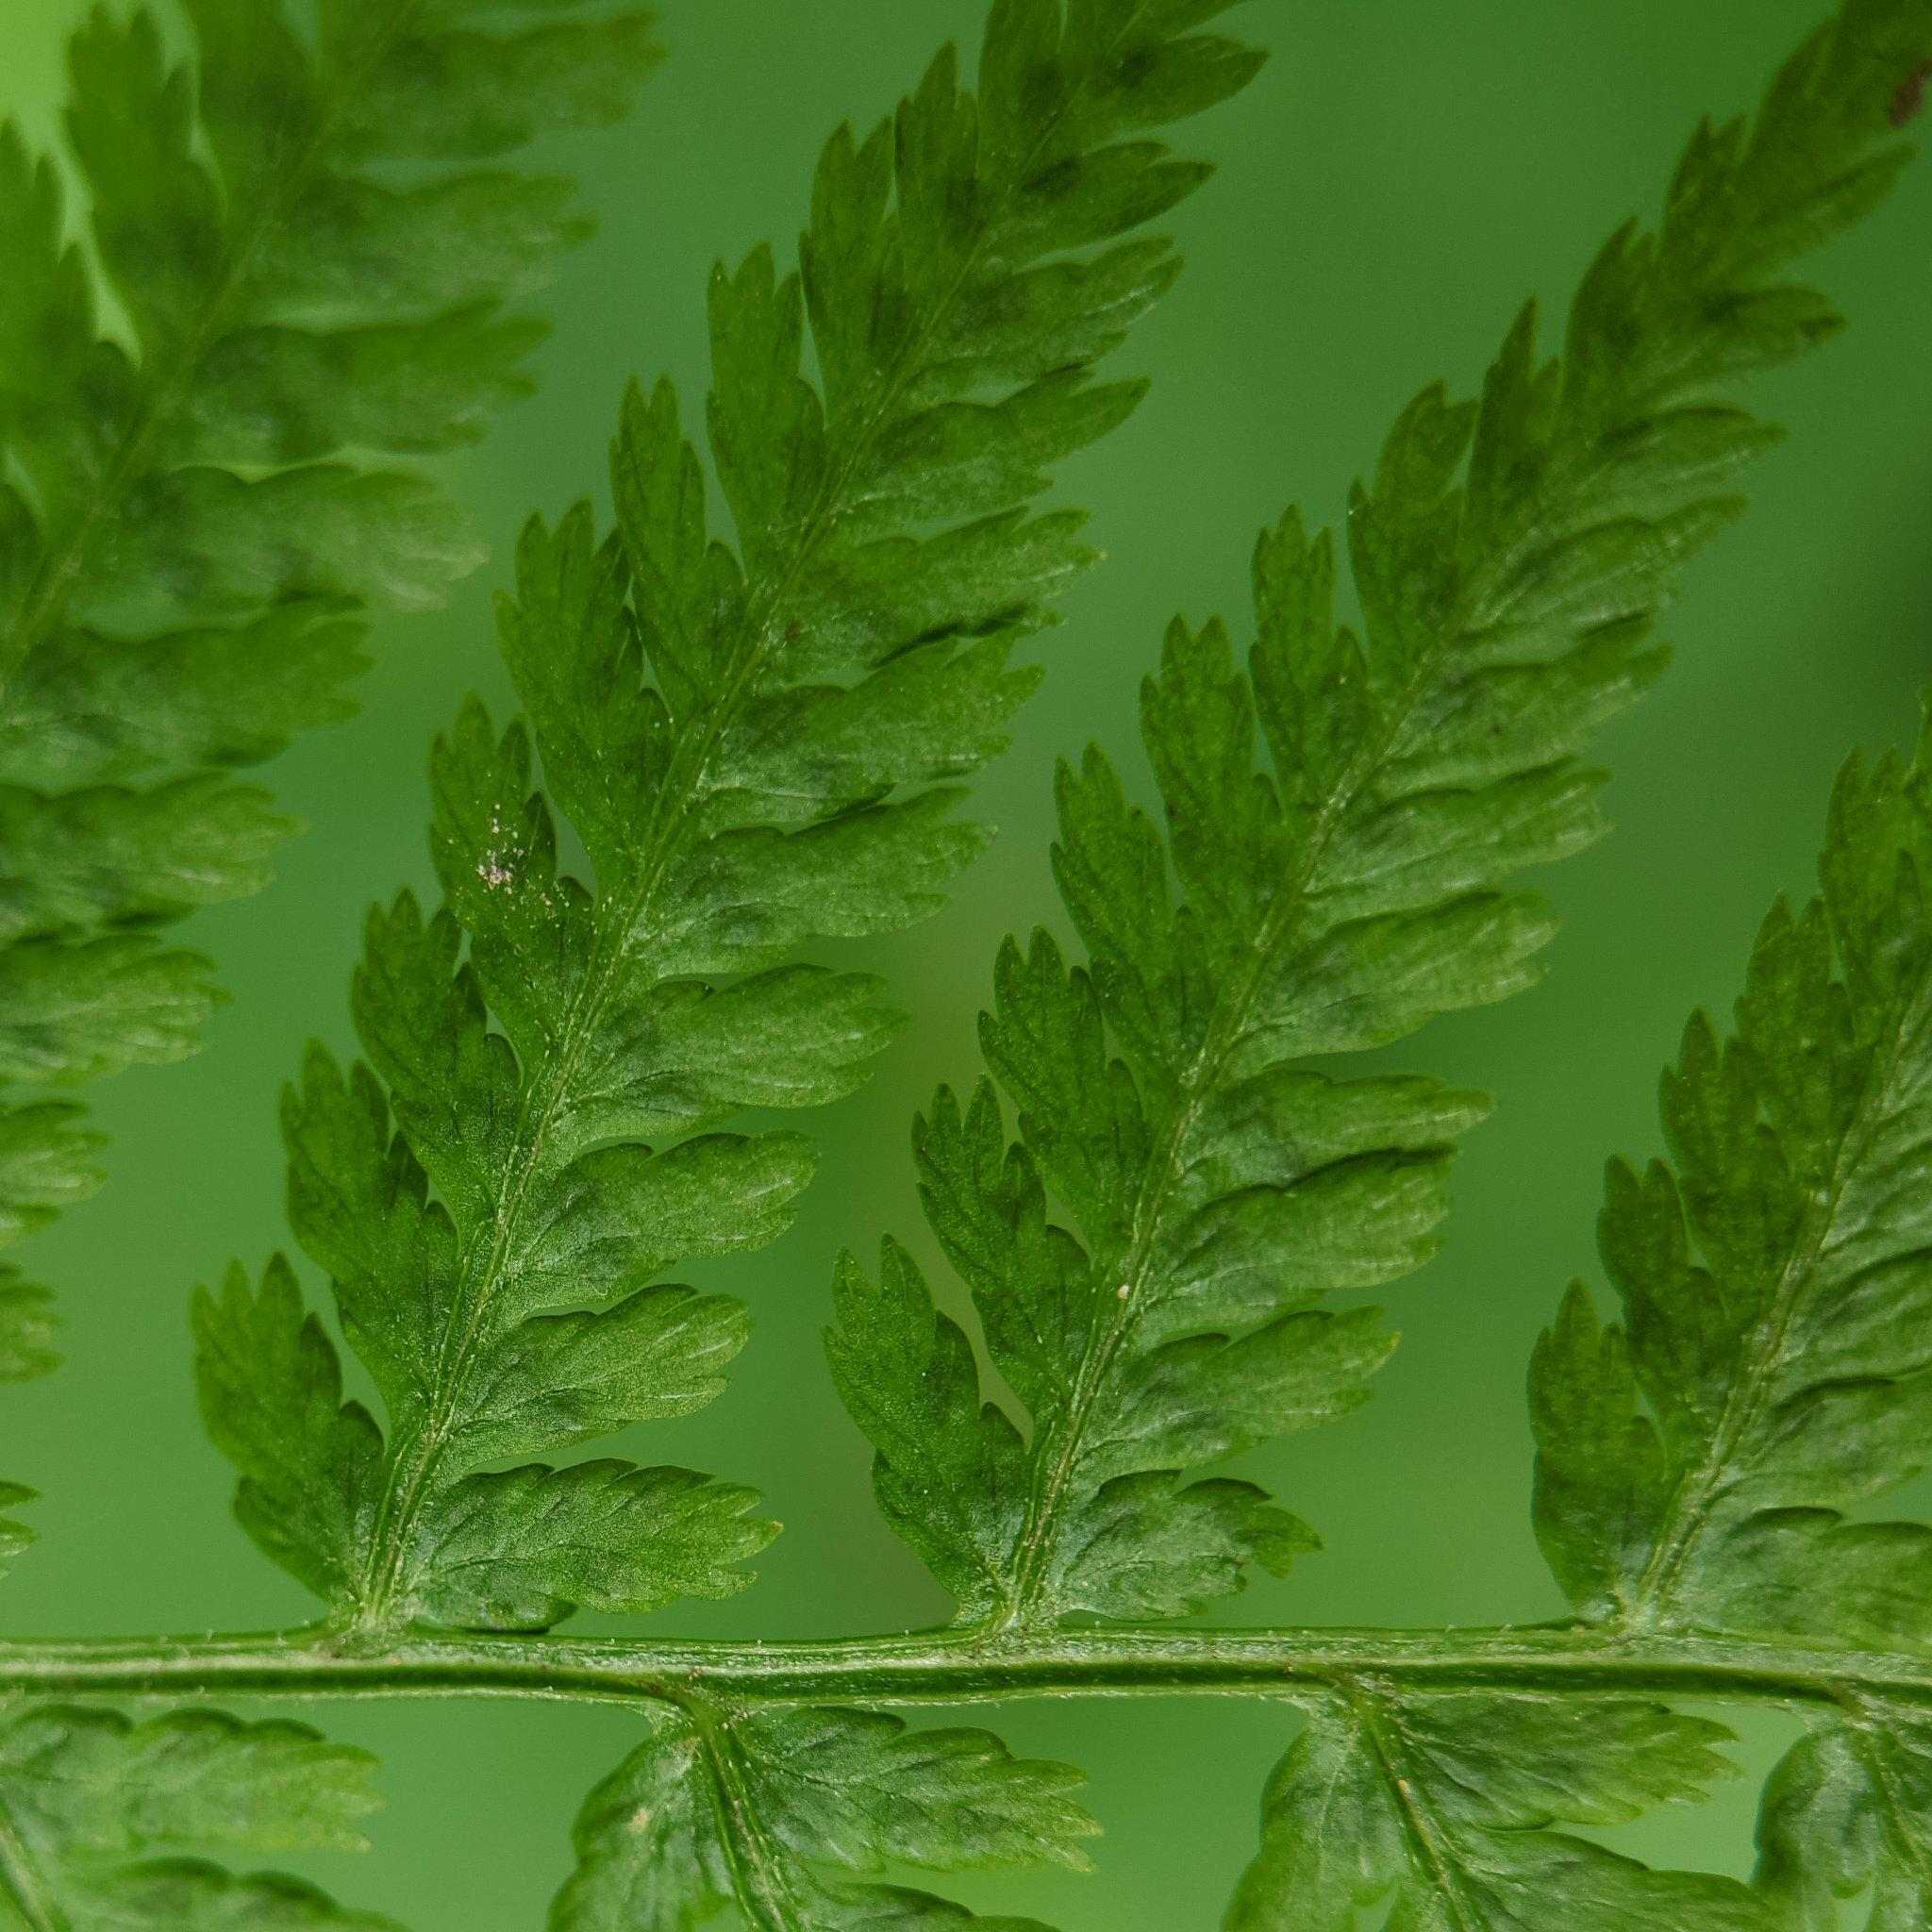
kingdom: Plantae
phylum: Tracheophyta
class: Polypodiopsida
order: Polypodiales
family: Athyriaceae
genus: Athyrium
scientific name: Athyrium filix-femina
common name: Lady fern
